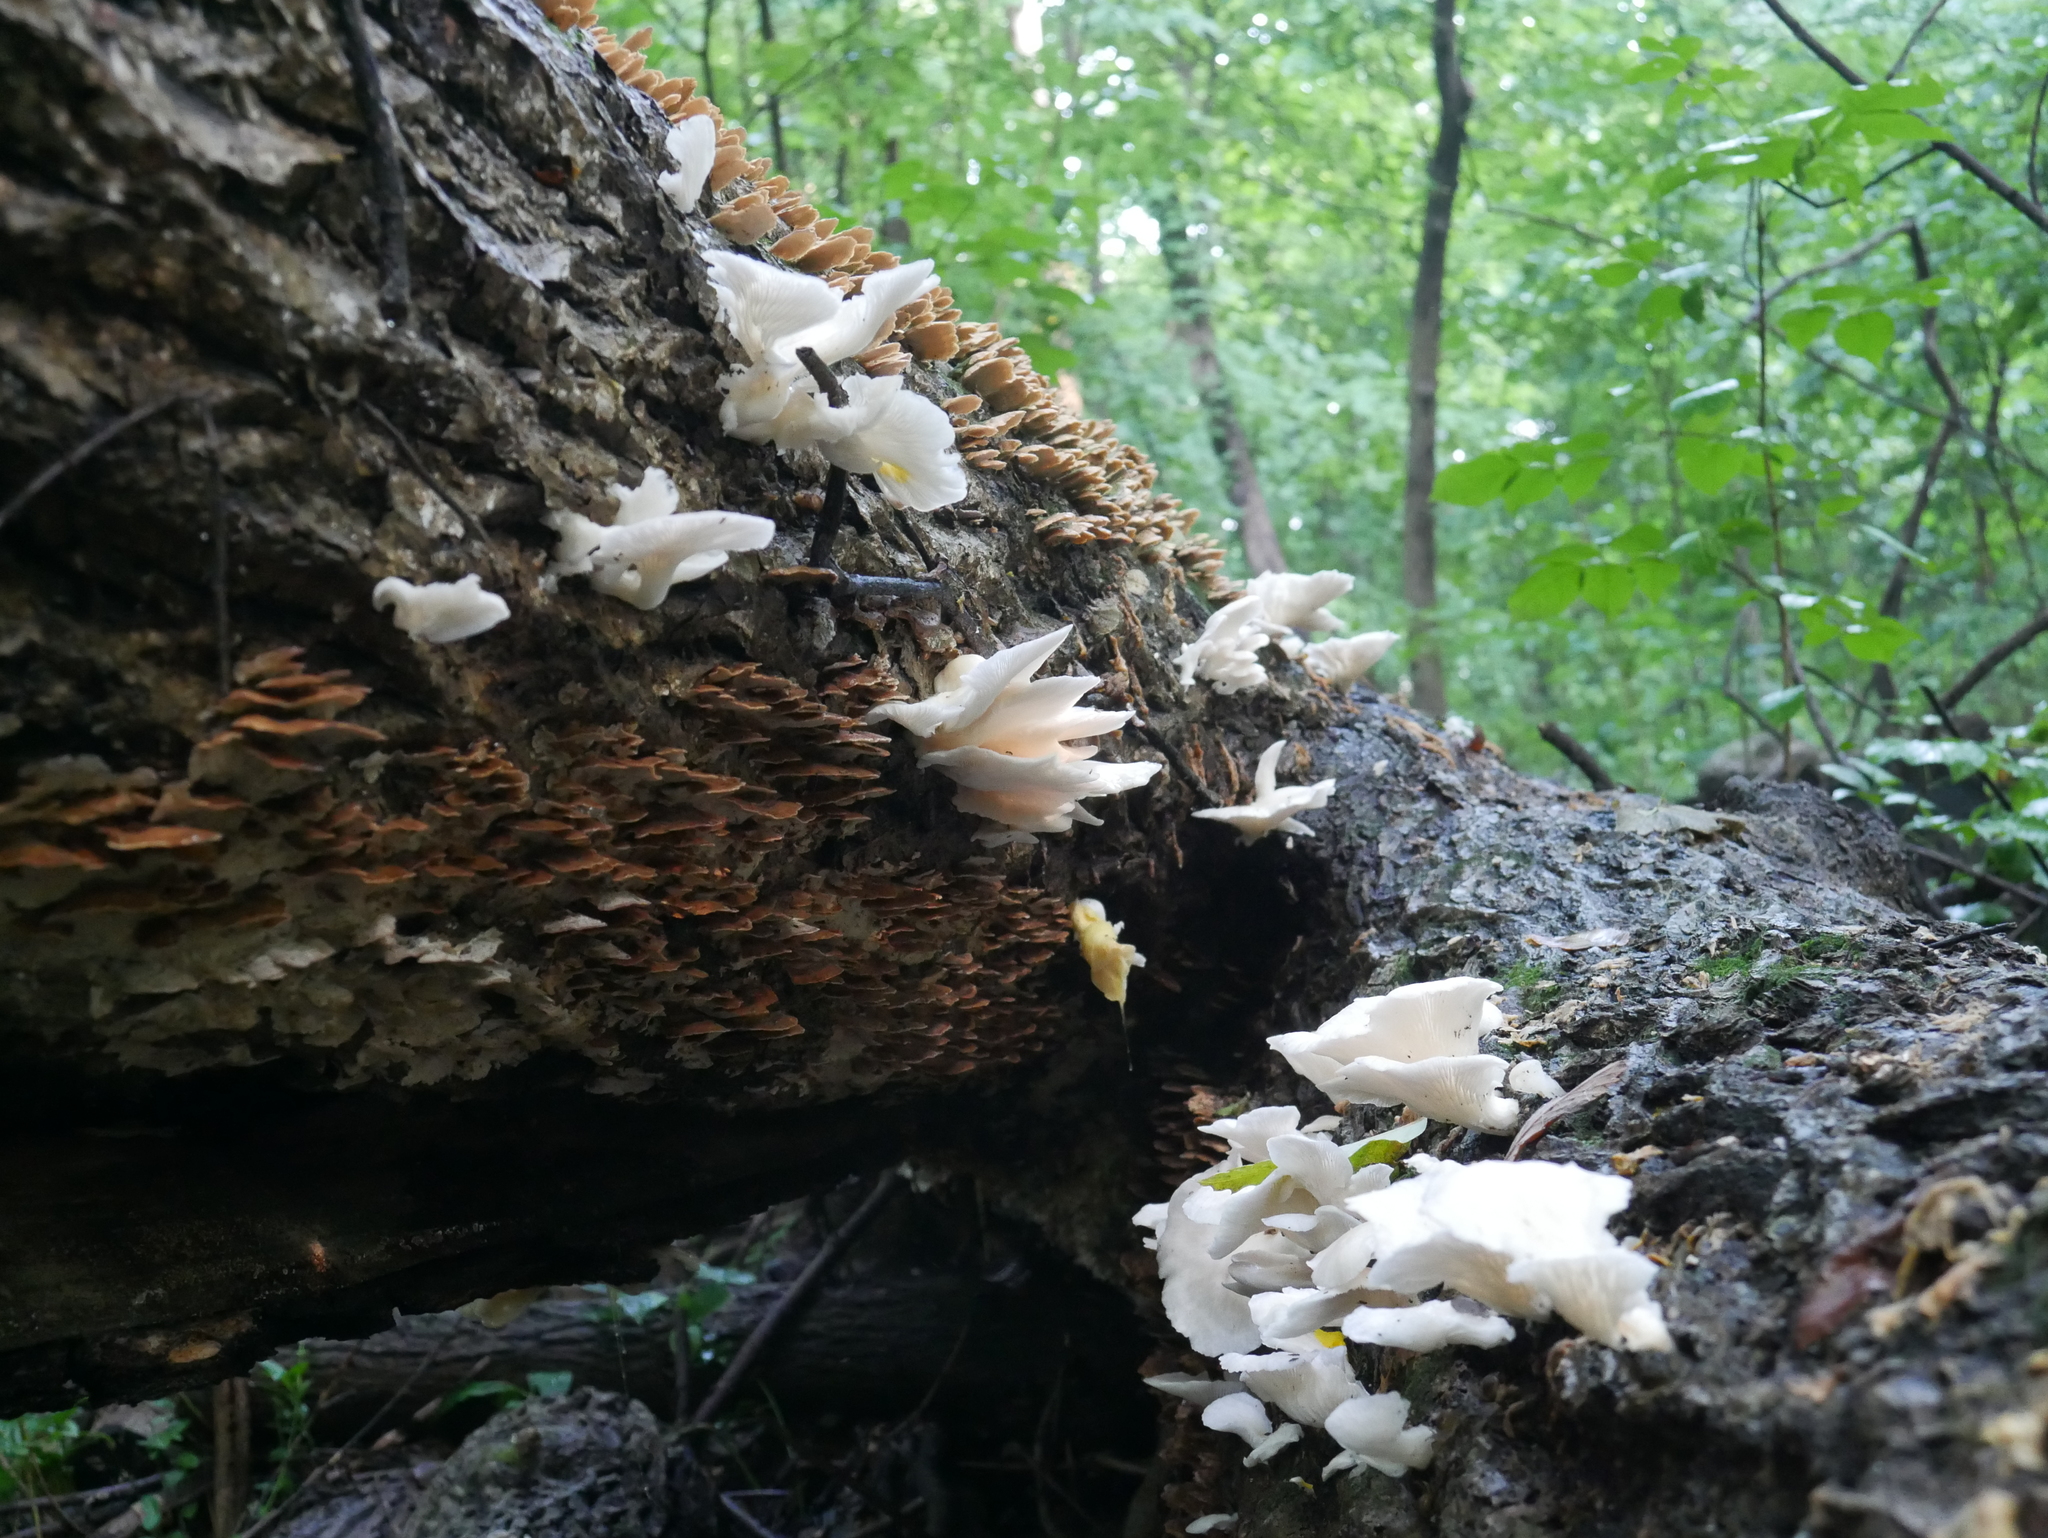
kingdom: Fungi
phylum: Basidiomycota
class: Agaricomycetes
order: Agaricales
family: Pleurotaceae
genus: Pleurotus
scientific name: Pleurotus pulmonarius
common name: Pale oyster
